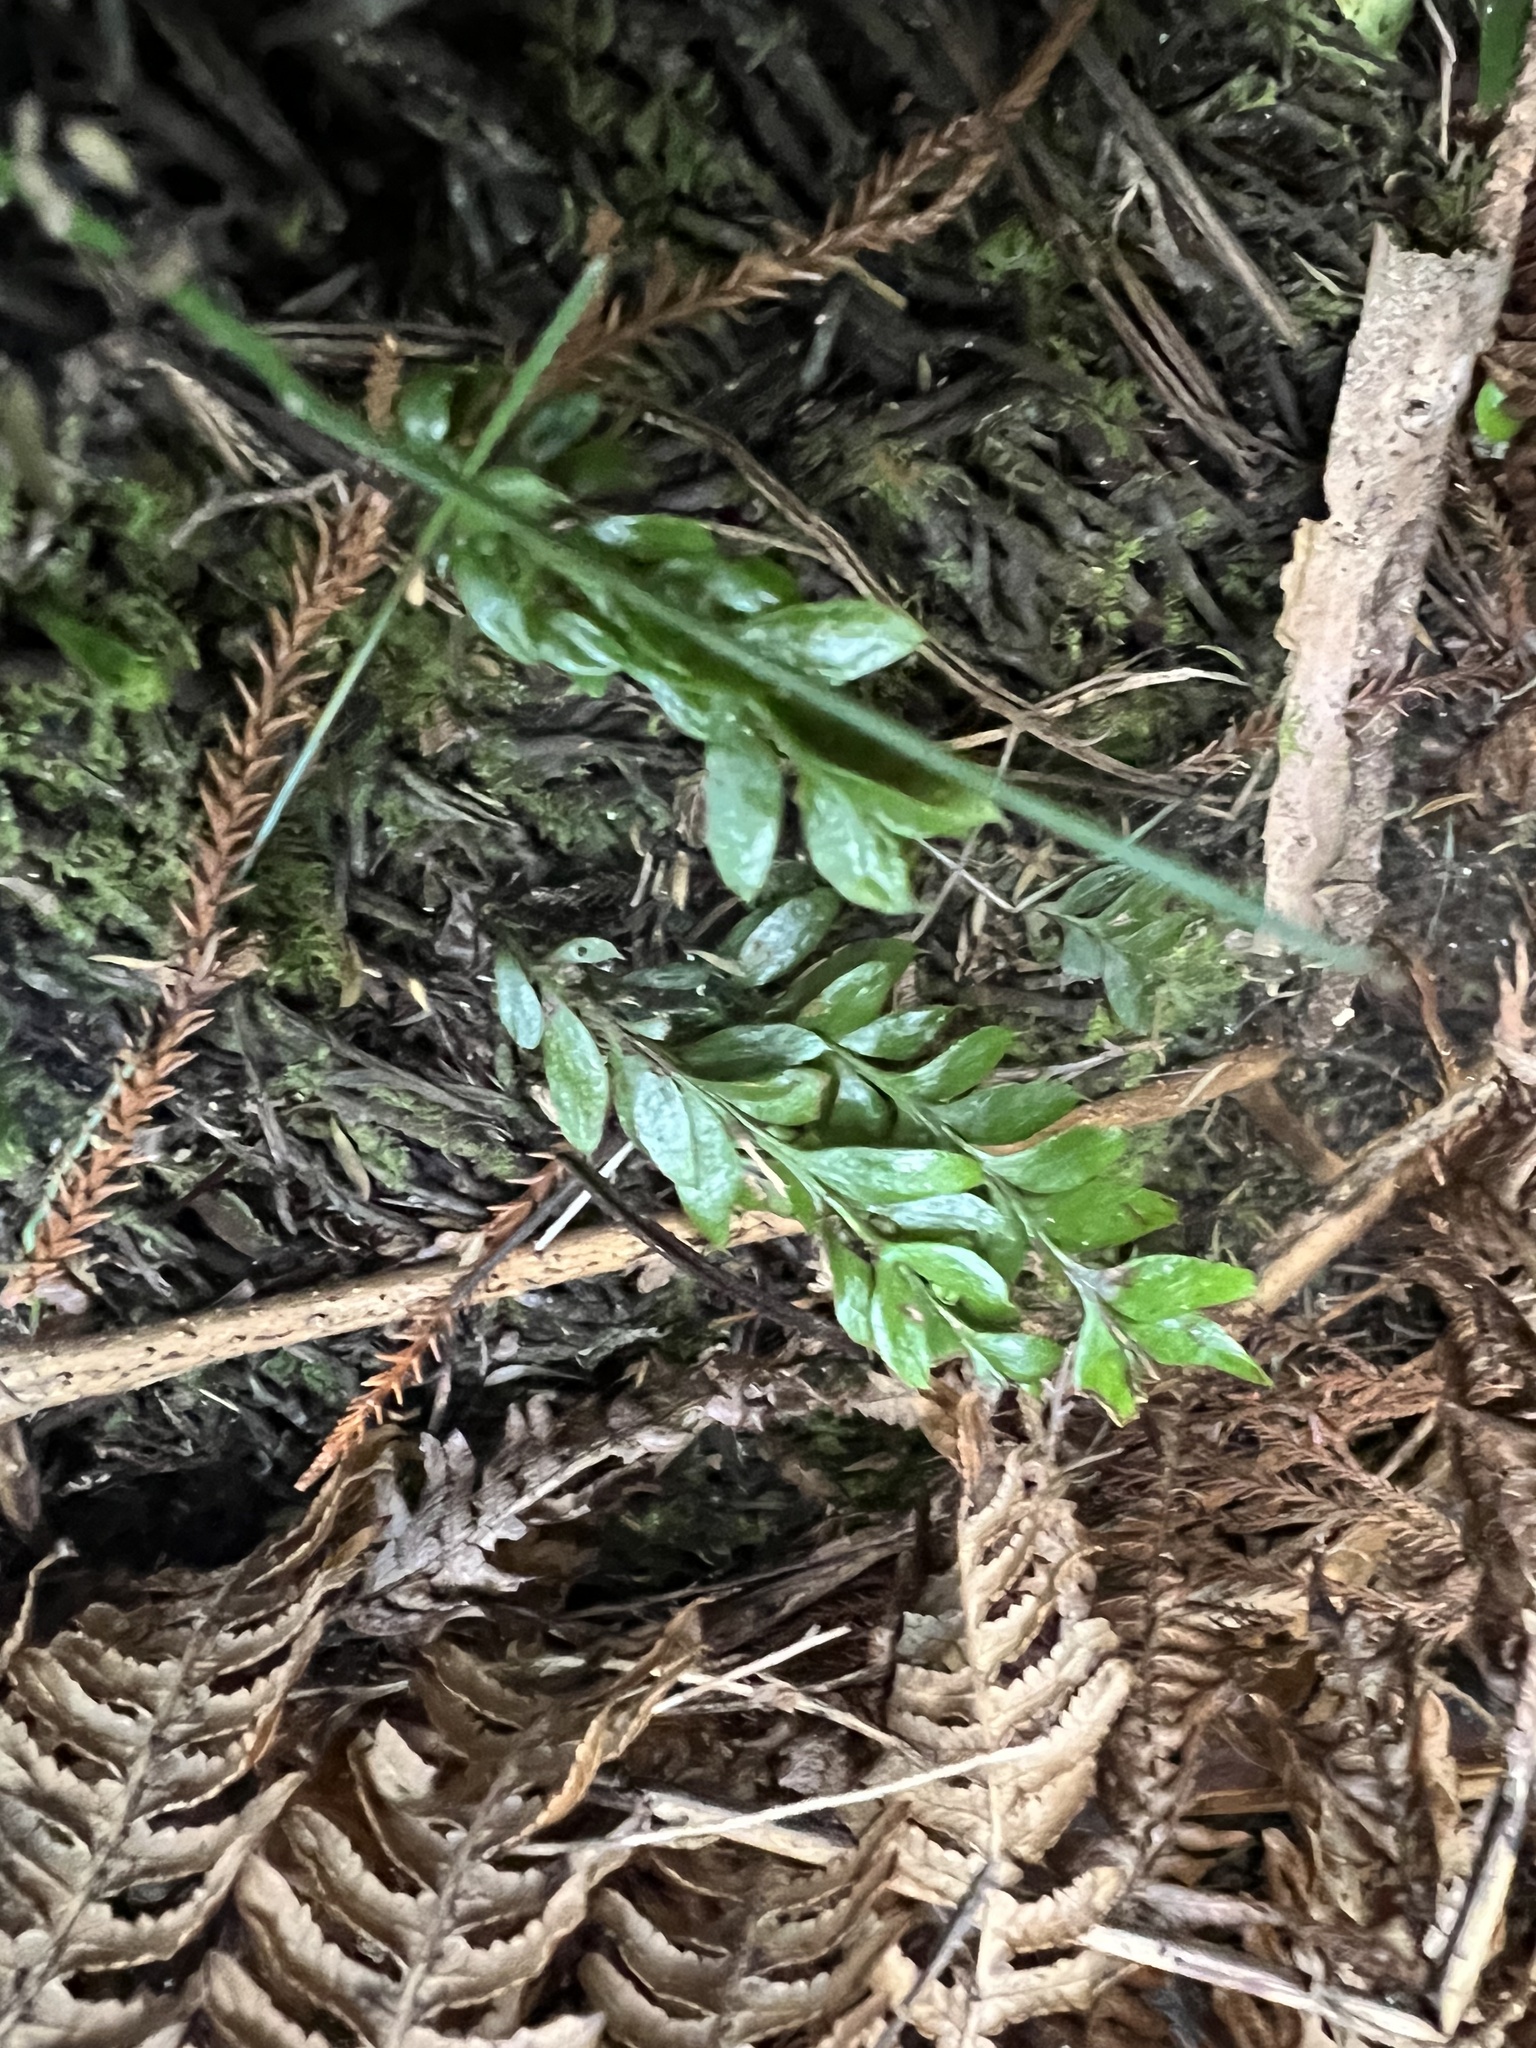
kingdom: Plantae
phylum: Tracheophyta
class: Polypodiopsida
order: Psilotales
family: Psilotaceae
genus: Tmesipteris
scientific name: Tmesipteris lanceolata
